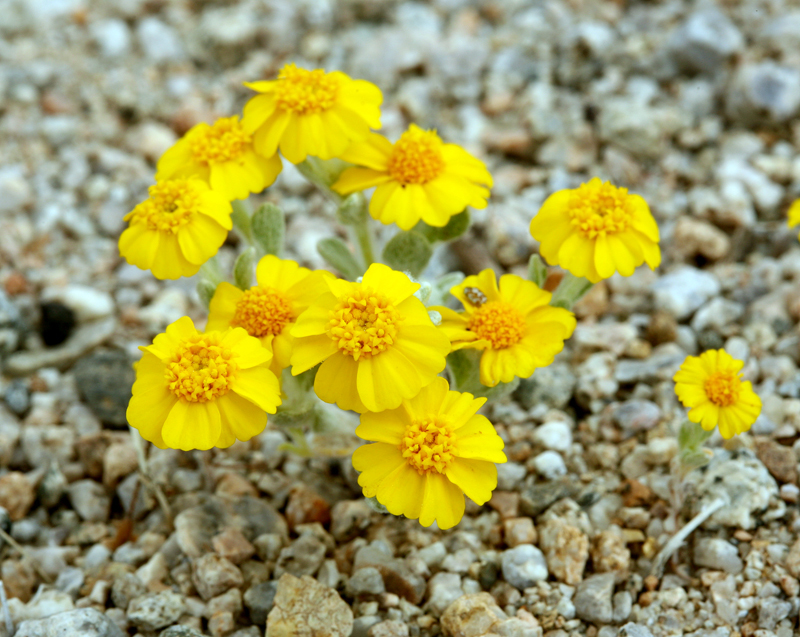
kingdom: Plantae
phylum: Tracheophyta
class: Magnoliopsida
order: Asterales
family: Asteraceae
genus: Eriophyllum
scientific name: Eriophyllum wallacei
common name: Wallace's woolly daisy
